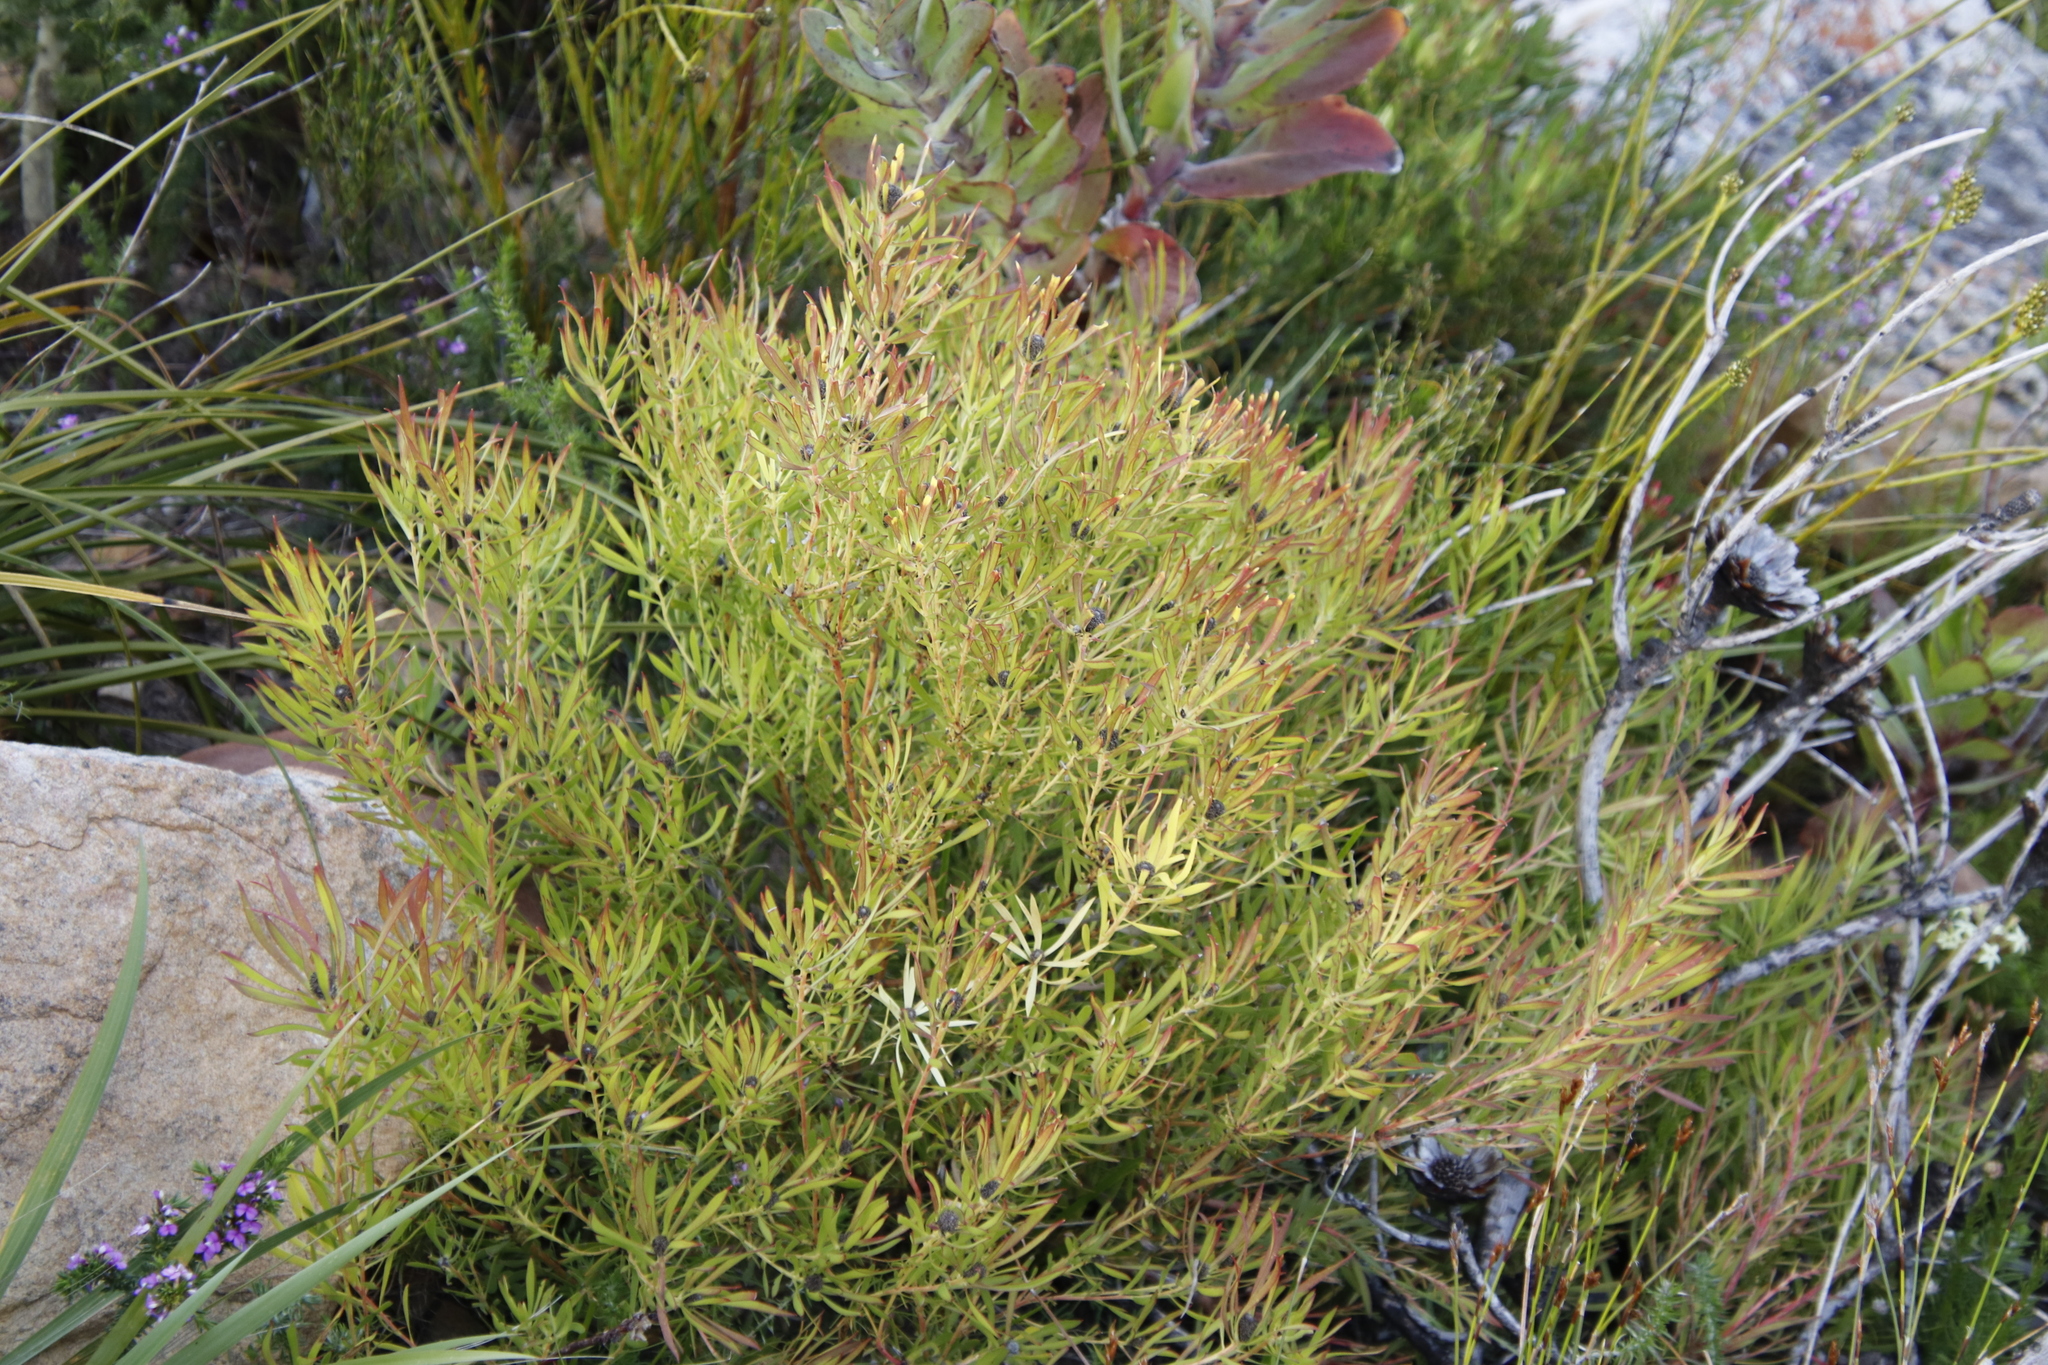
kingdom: Plantae
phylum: Tracheophyta
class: Magnoliopsida
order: Proteales
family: Proteaceae
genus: Leucadendron
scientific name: Leucadendron salignum
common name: Common sunshine conebush
